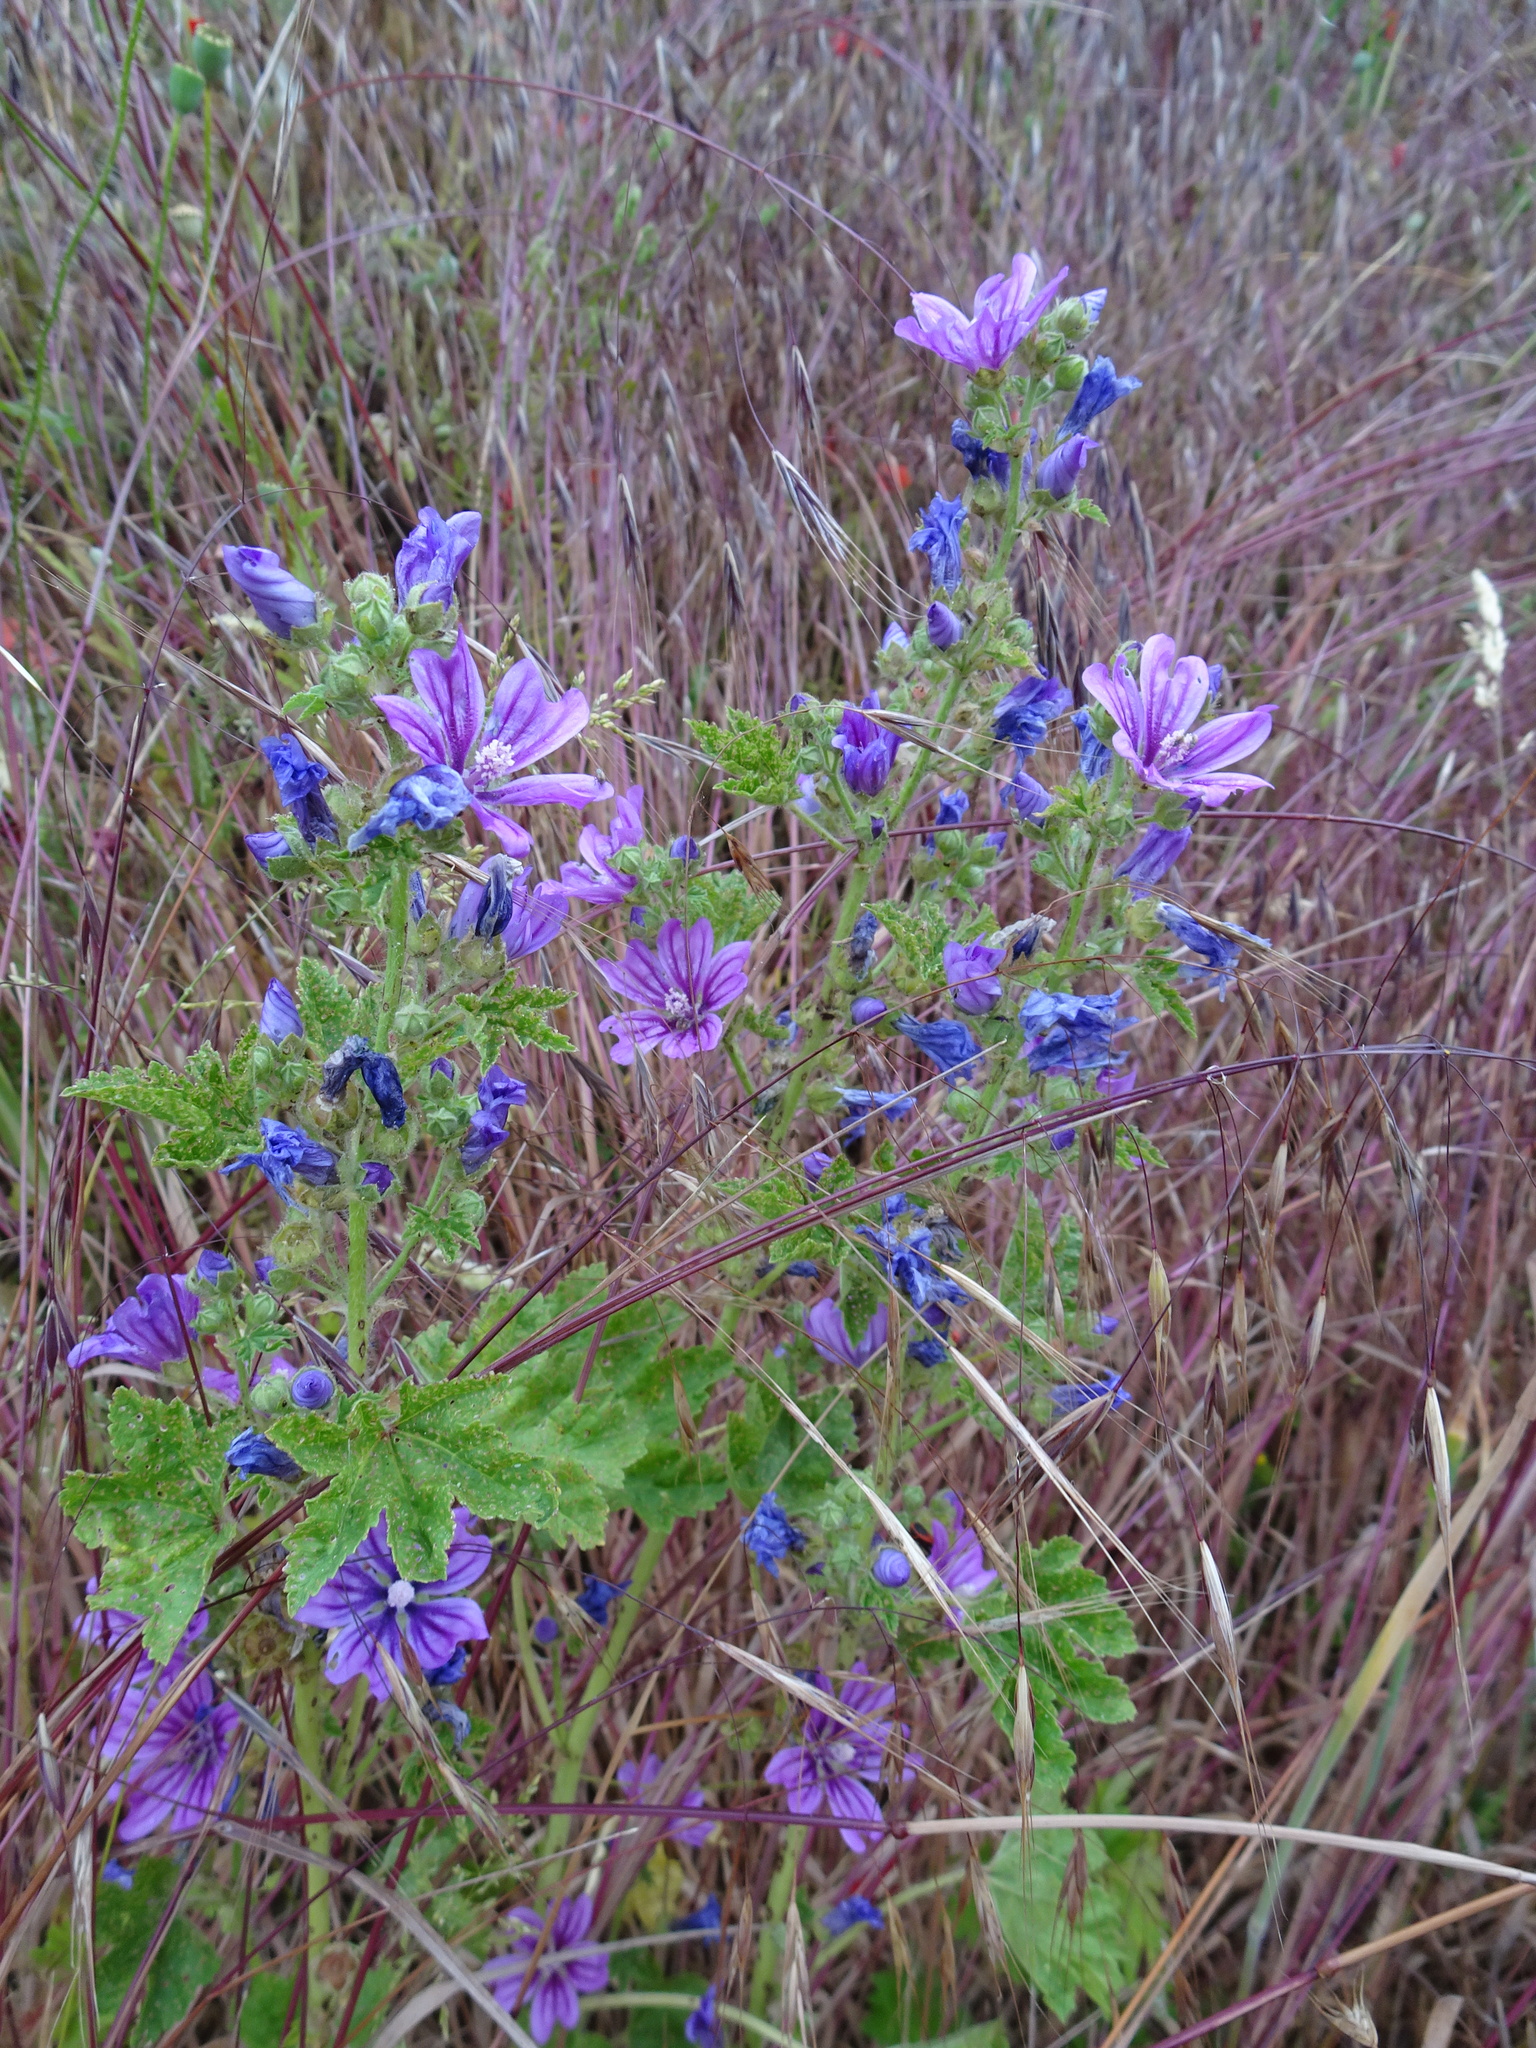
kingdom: Plantae
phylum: Tracheophyta
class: Magnoliopsida
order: Malvales
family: Malvaceae
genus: Malva
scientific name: Malva sylvestris
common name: Common mallow
